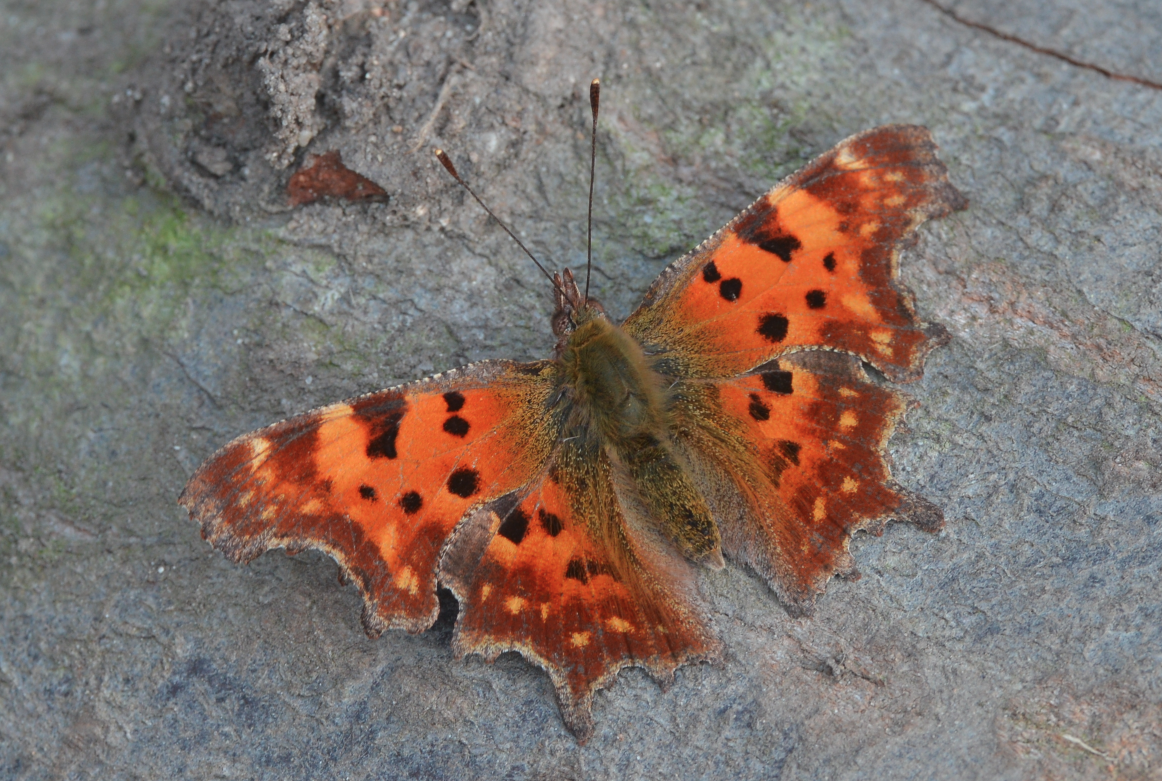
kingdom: Animalia
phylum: Arthropoda
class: Insecta
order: Lepidoptera
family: Nymphalidae
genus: Polygonia
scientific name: Polygonia c-album
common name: Comma
